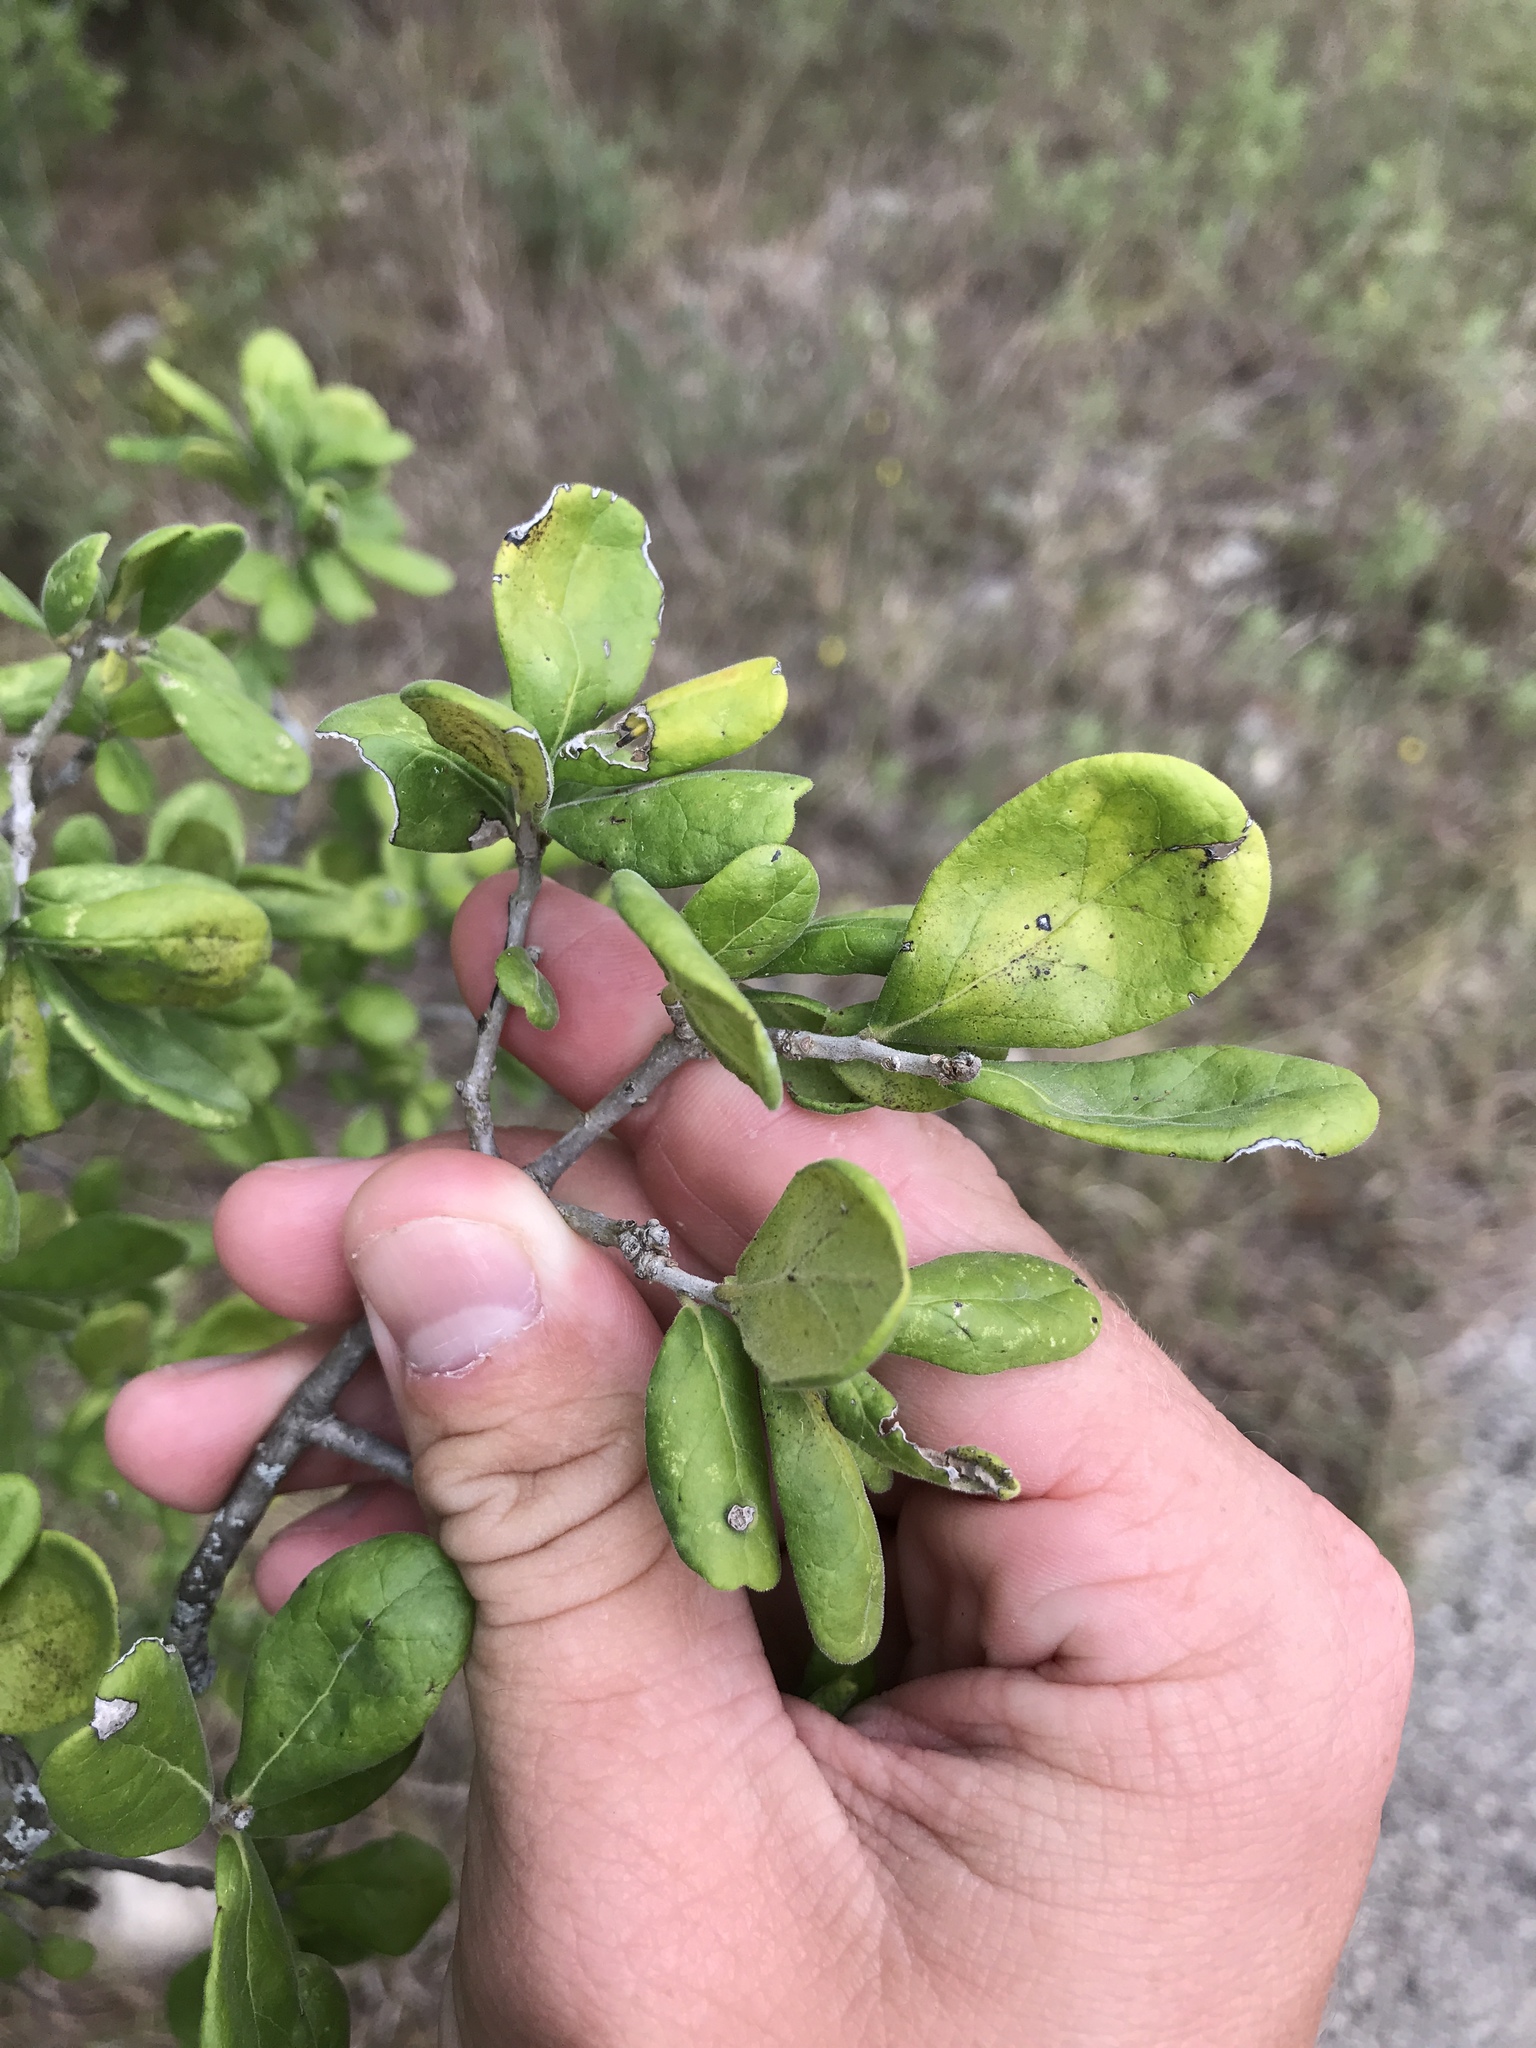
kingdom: Plantae
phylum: Tracheophyta
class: Magnoliopsida
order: Ericales
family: Ebenaceae
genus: Diospyros
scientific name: Diospyros texana
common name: Texas persimmon
